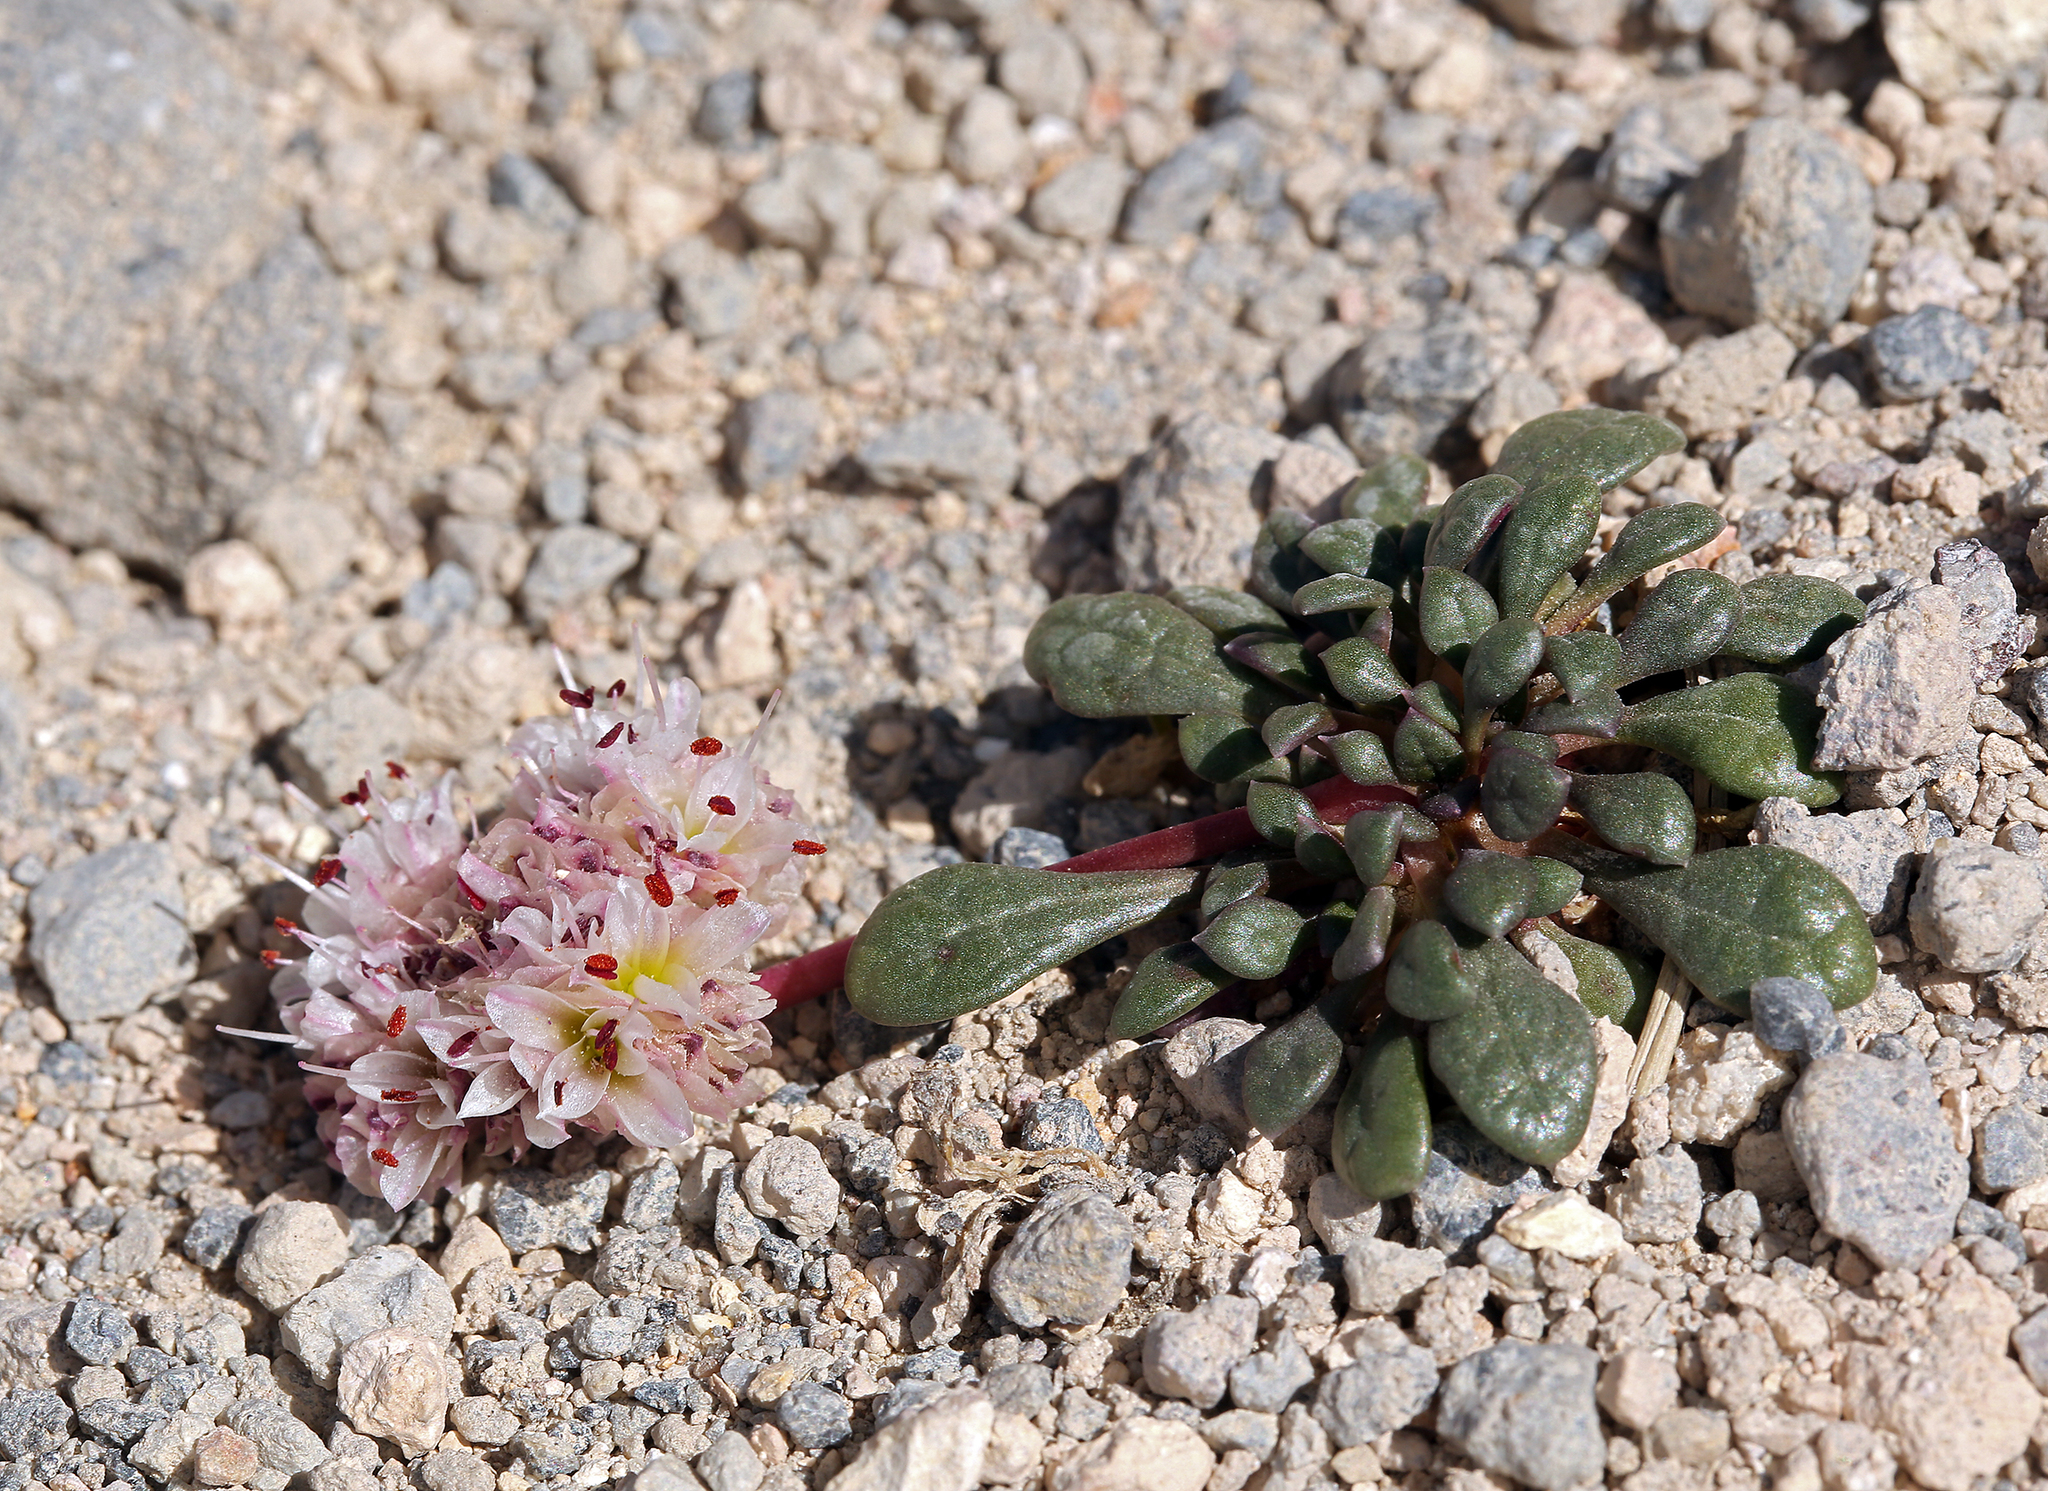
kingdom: Plantae
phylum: Tracheophyta
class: Magnoliopsida
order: Caryophyllales
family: Montiaceae
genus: Calyptridium
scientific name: Calyptridium umbellatum
